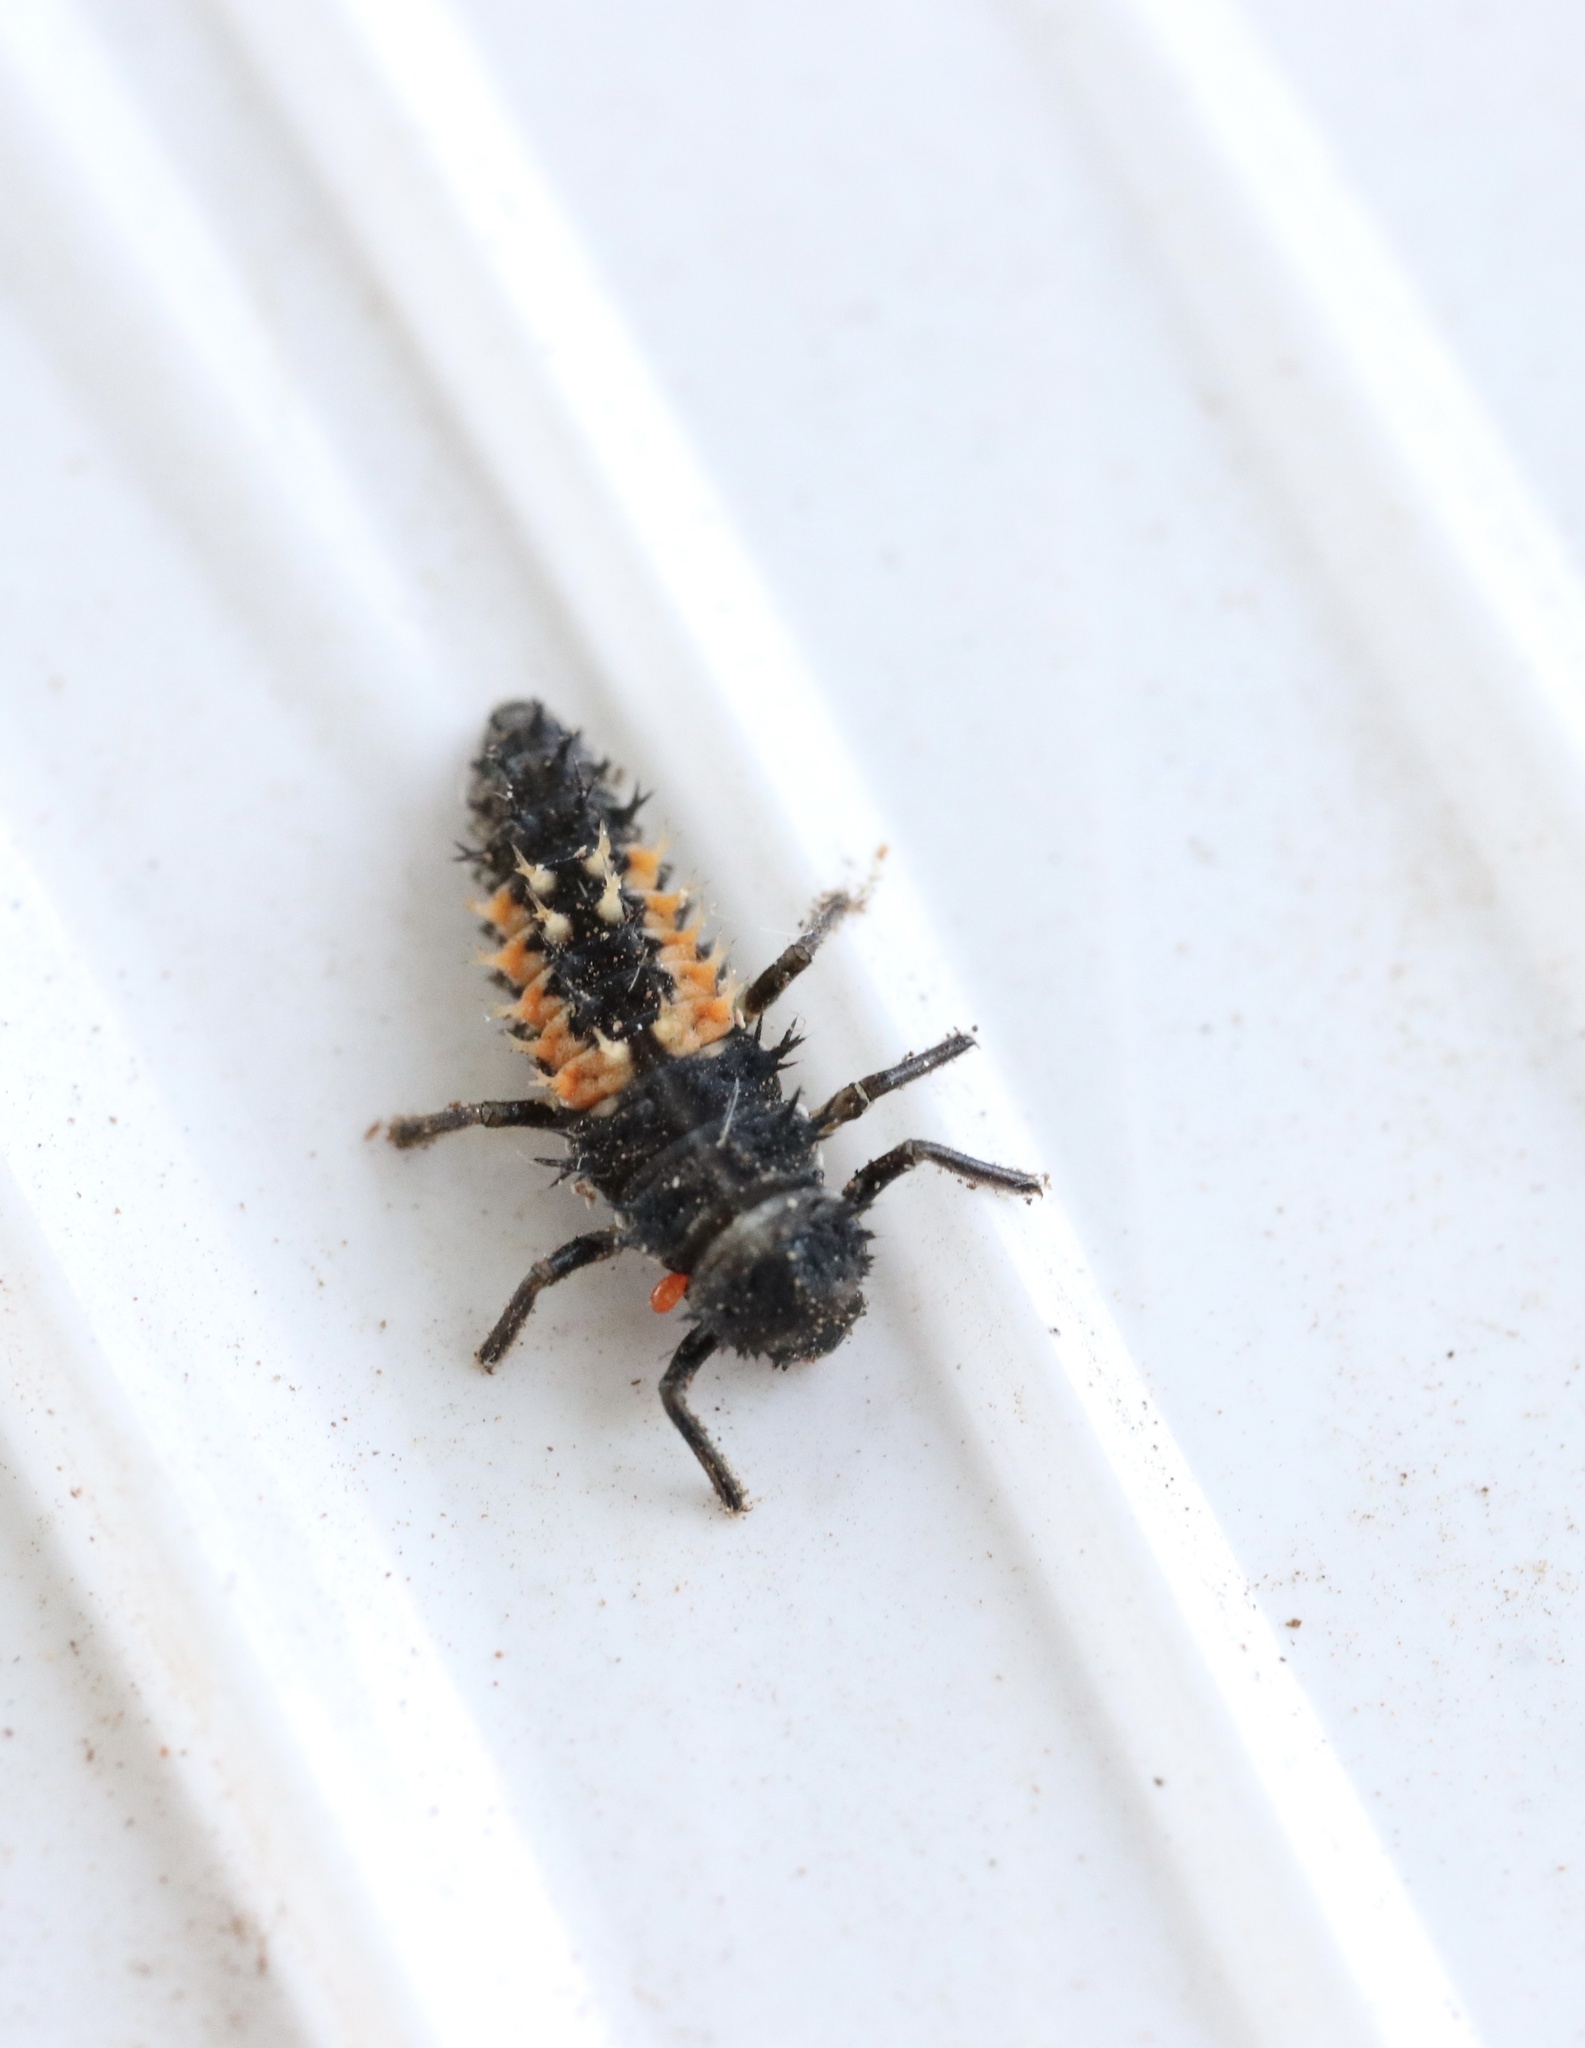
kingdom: Animalia
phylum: Arthropoda
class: Insecta
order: Coleoptera
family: Coccinellidae
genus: Harmonia
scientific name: Harmonia axyridis
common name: Harlequin ladybird
